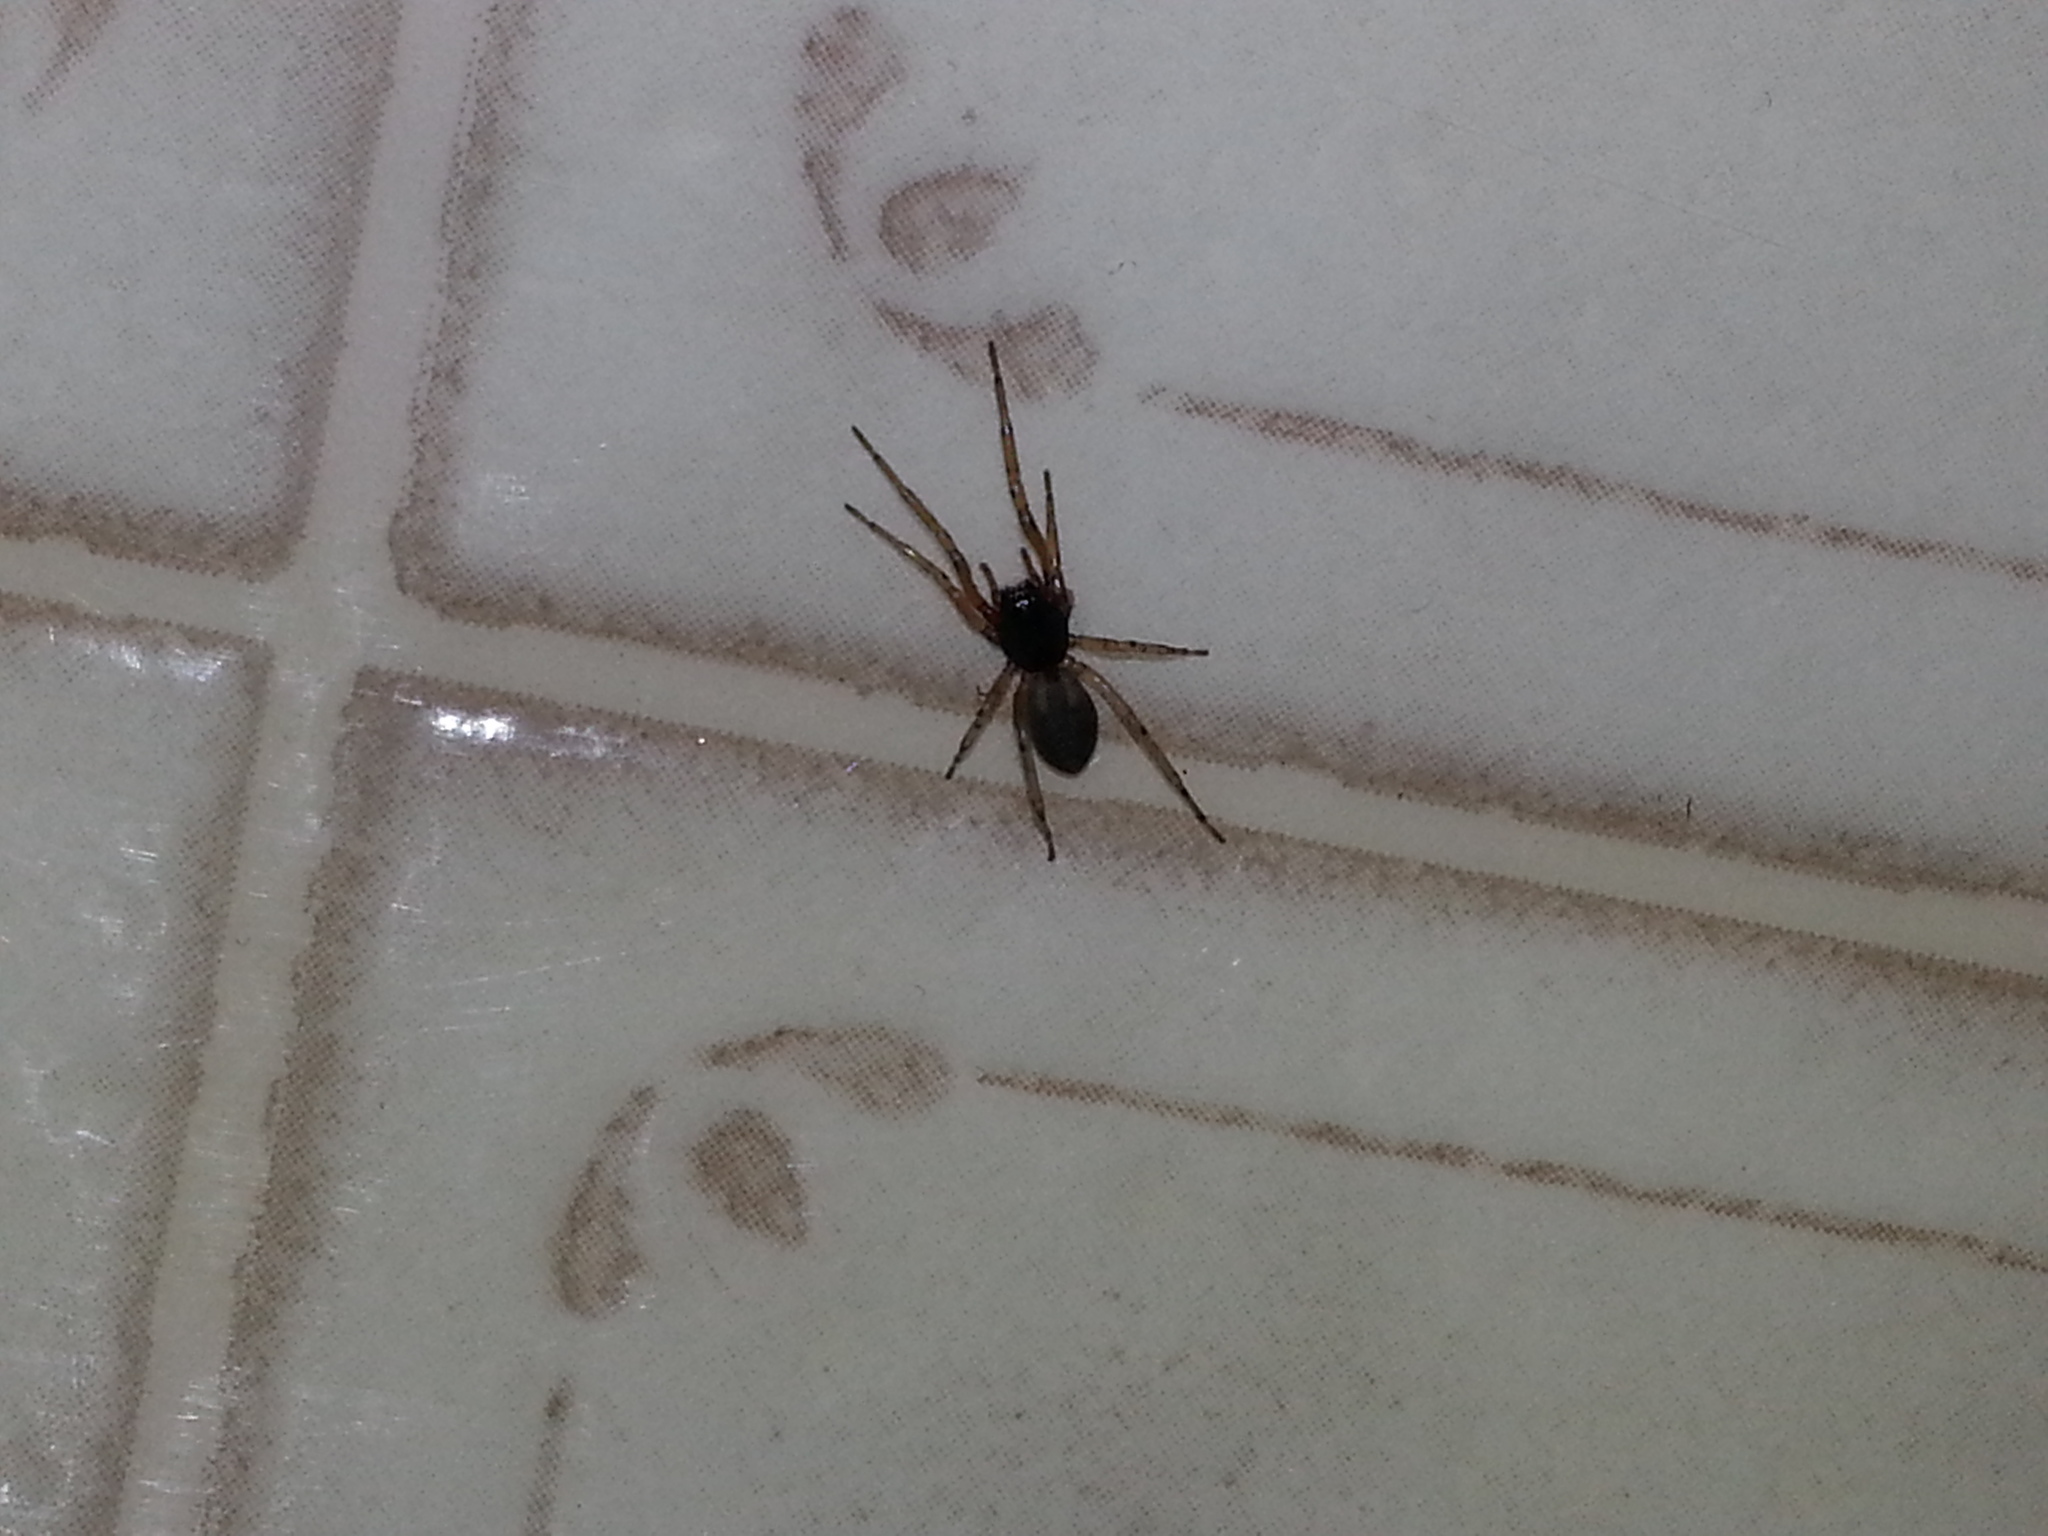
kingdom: Animalia
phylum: Arthropoda
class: Arachnida
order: Araneae
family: Trachelidae
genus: Trachelas
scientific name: Trachelas pacificus
